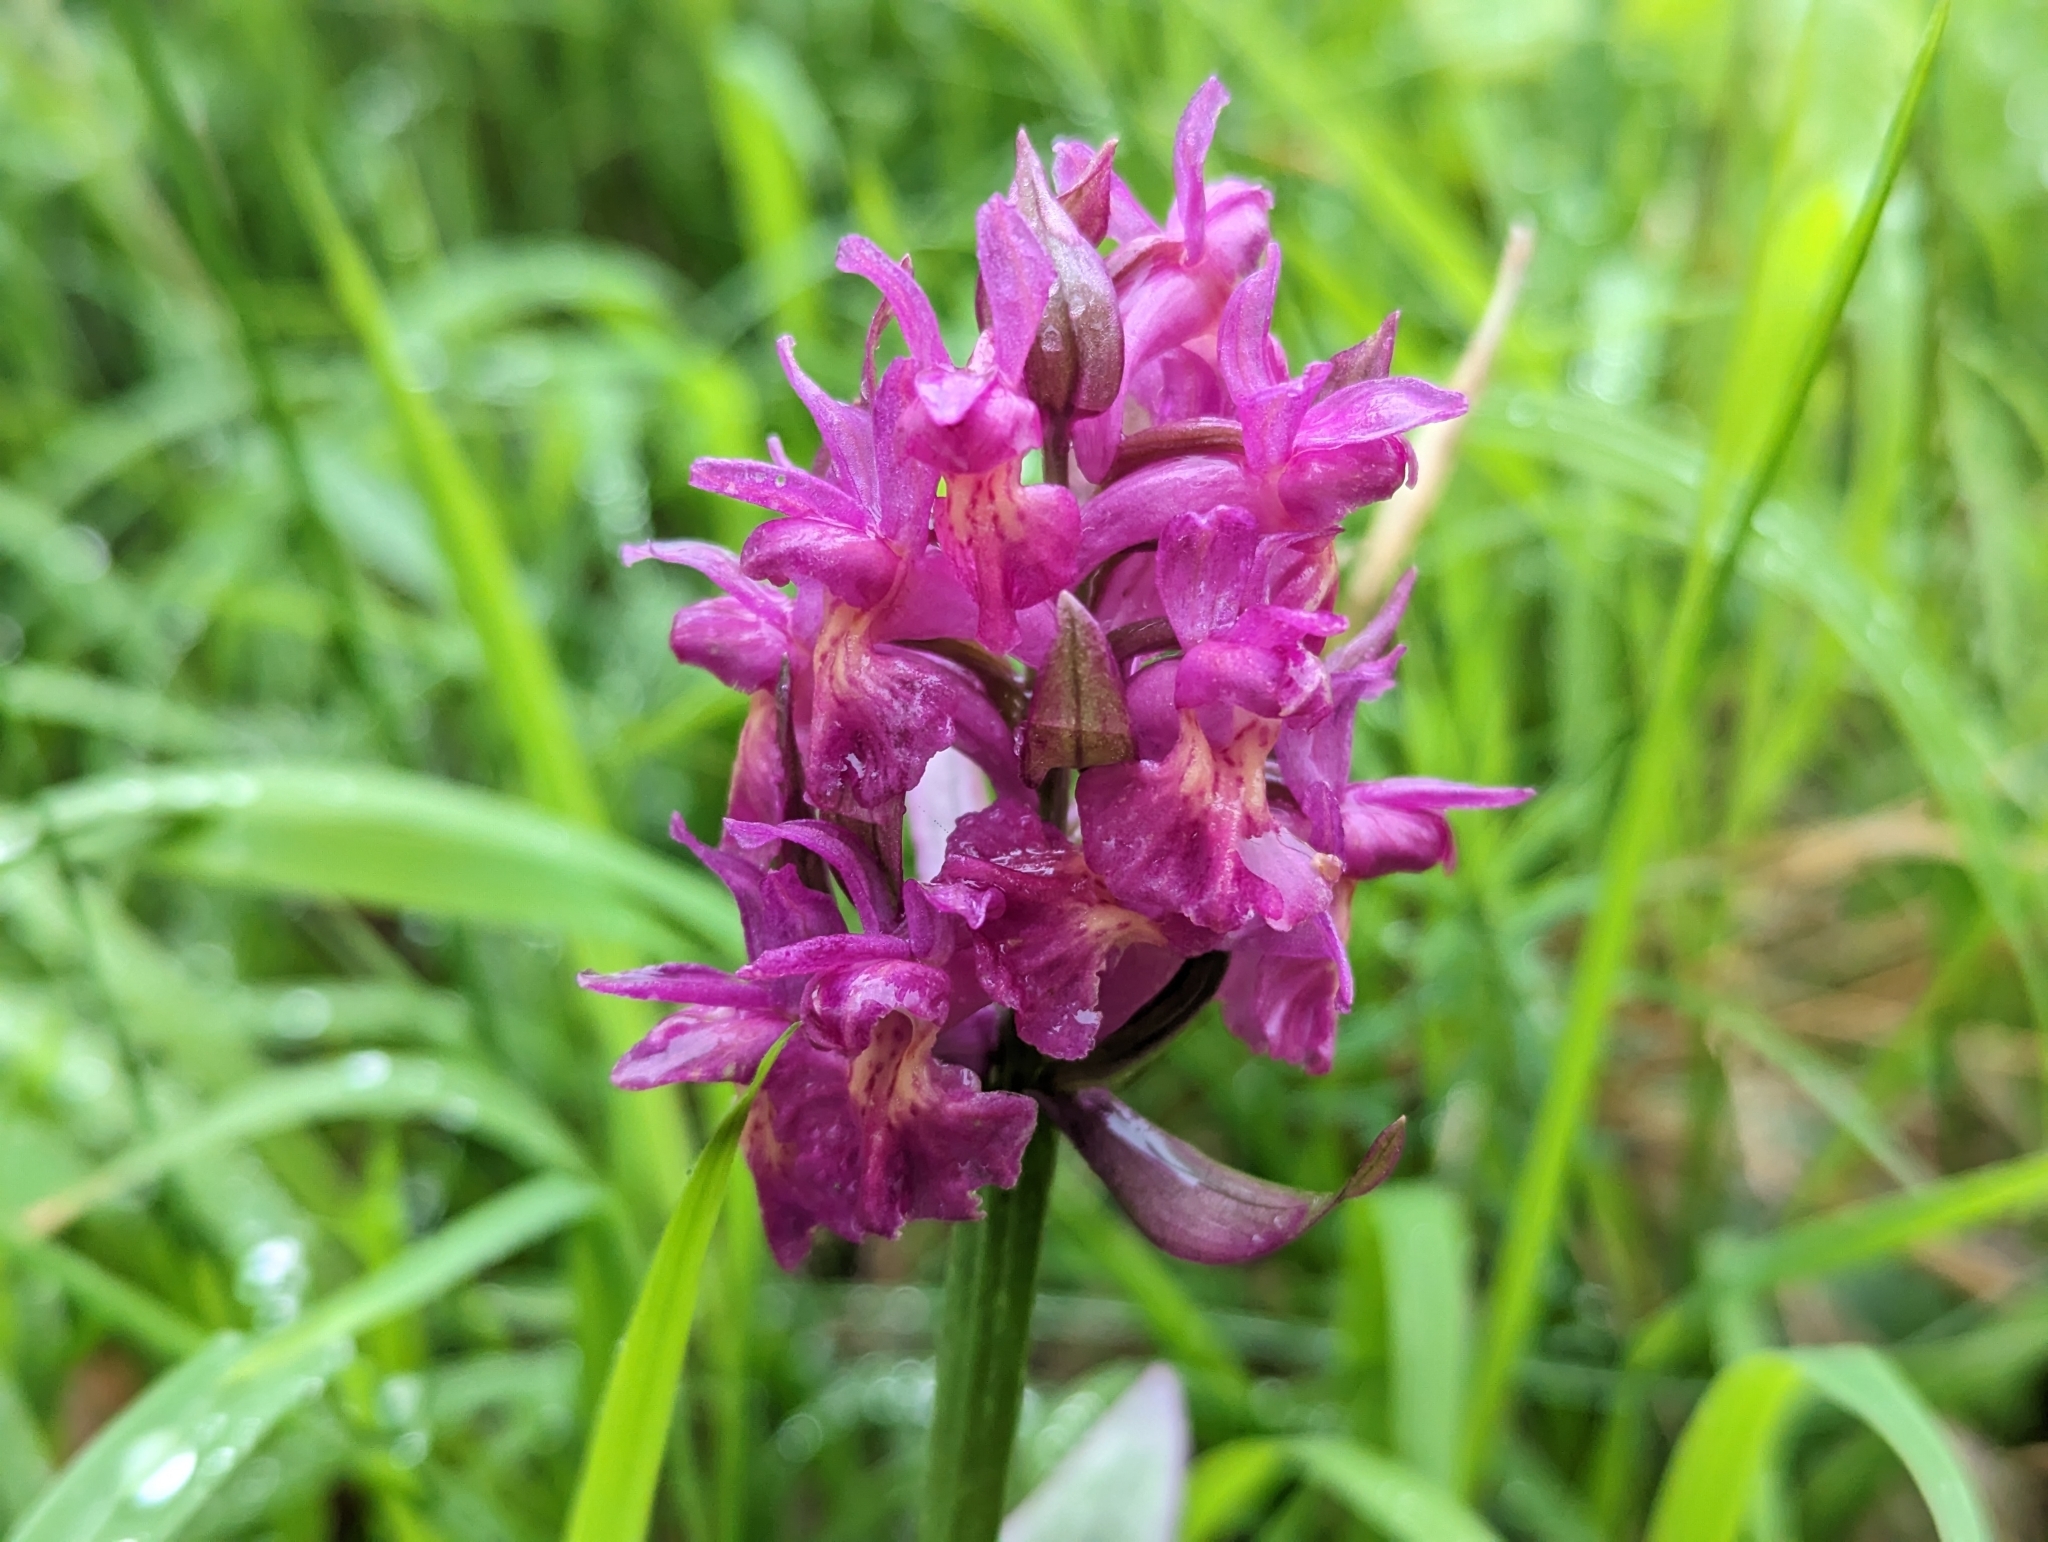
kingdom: Plantae
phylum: Tracheophyta
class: Liliopsida
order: Asparagales
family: Orchidaceae
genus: Dactylorhiza
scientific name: Dactylorhiza sambucina
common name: Elder-flowered orchid
